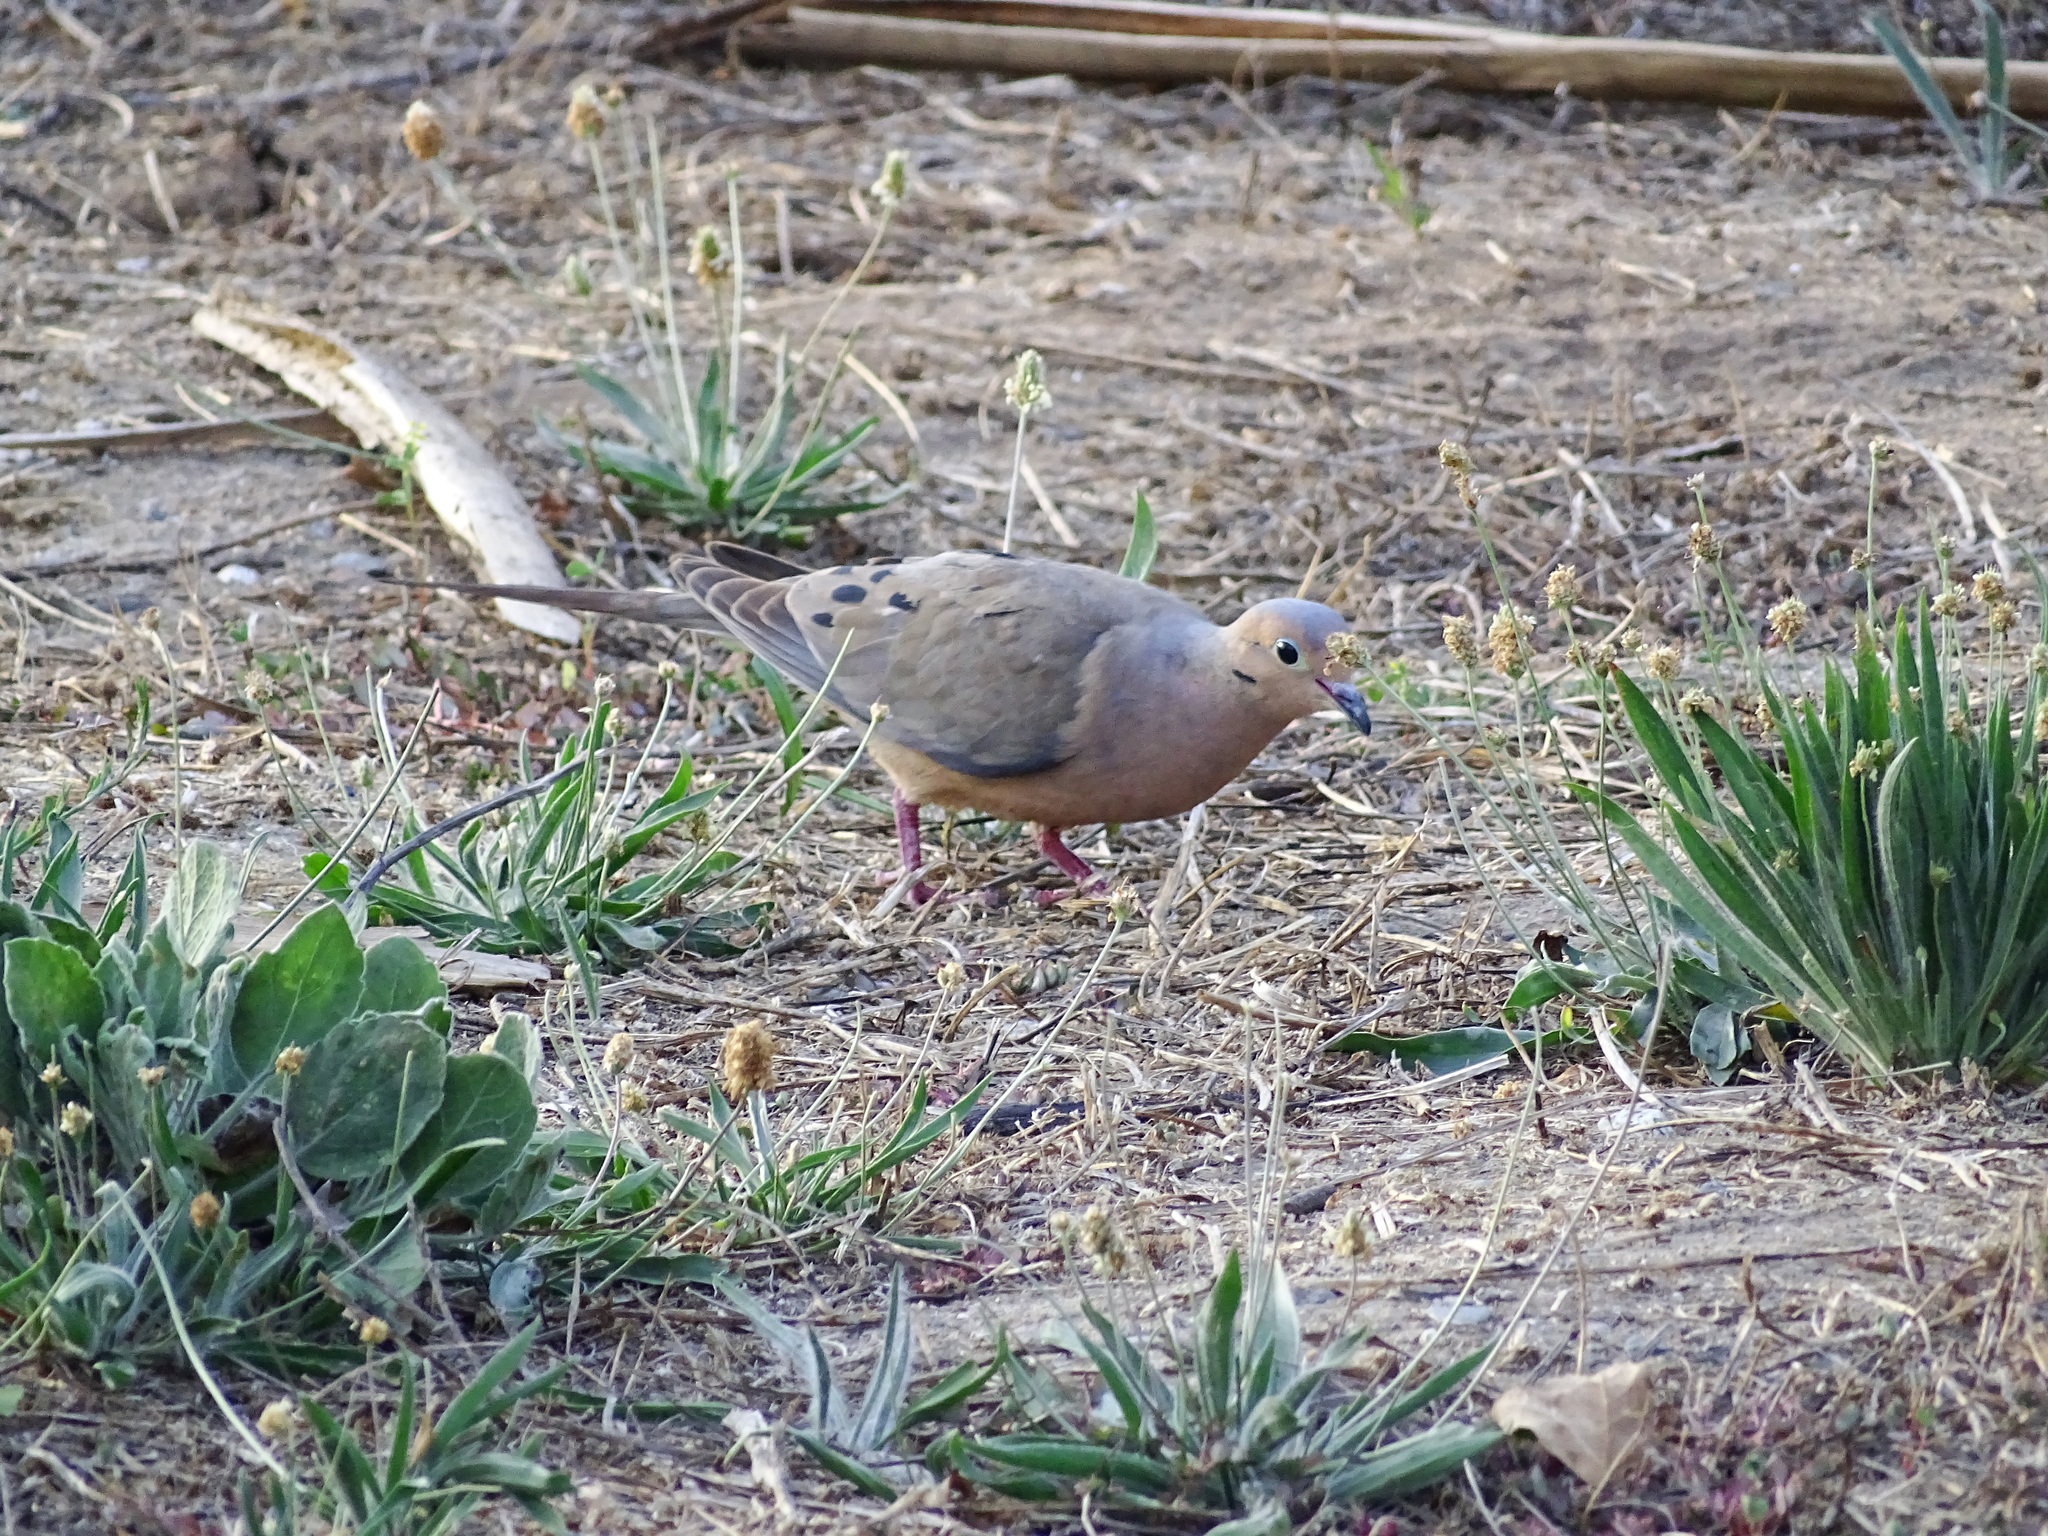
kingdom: Animalia
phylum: Chordata
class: Aves
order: Columbiformes
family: Columbidae
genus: Zenaida
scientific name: Zenaida macroura
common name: Mourning dove
